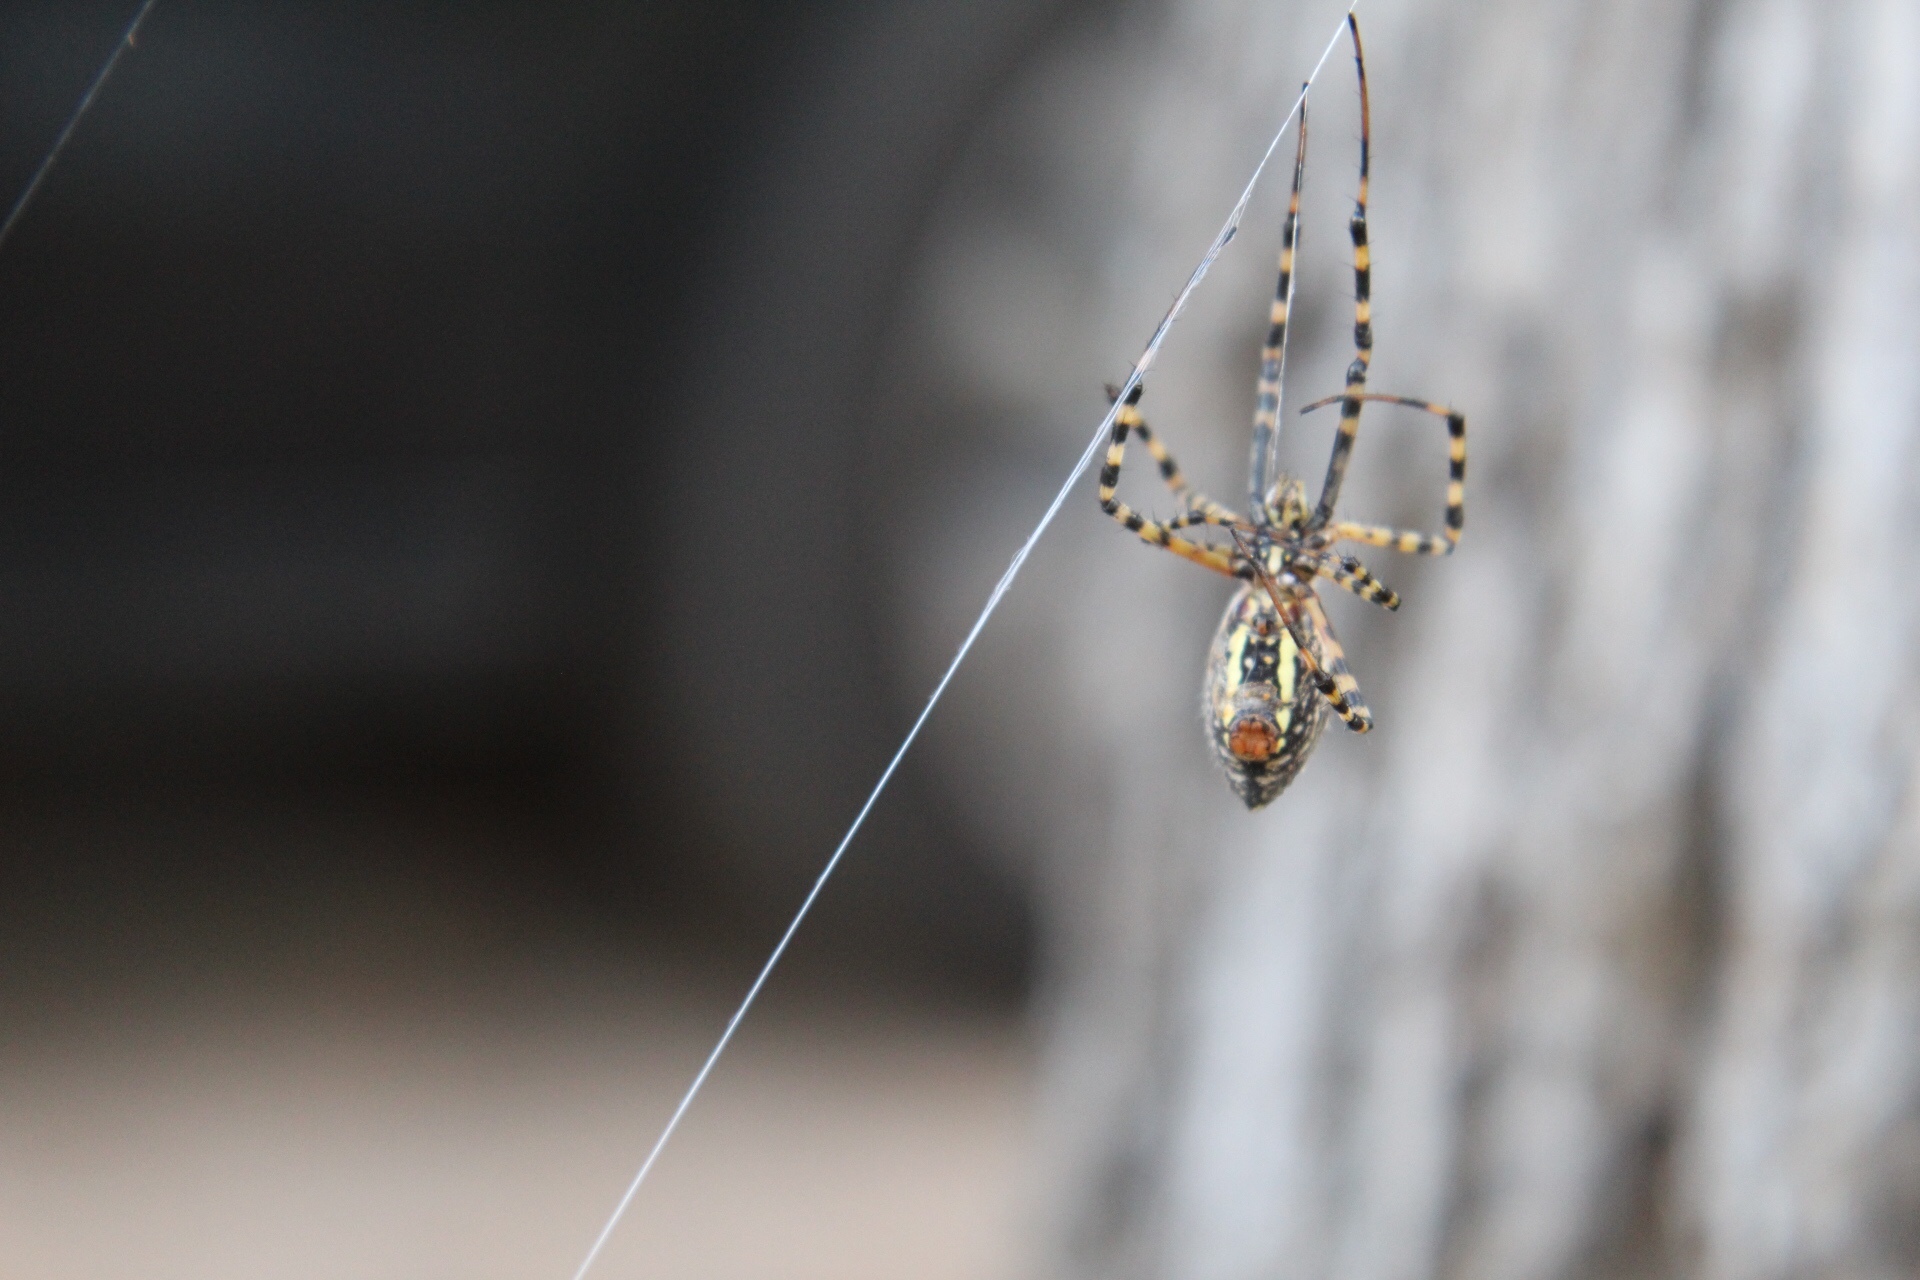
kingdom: Animalia
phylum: Arthropoda
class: Arachnida
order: Araneae
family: Araneidae
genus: Argiope
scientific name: Argiope trifasciata
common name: Banded garden spider
